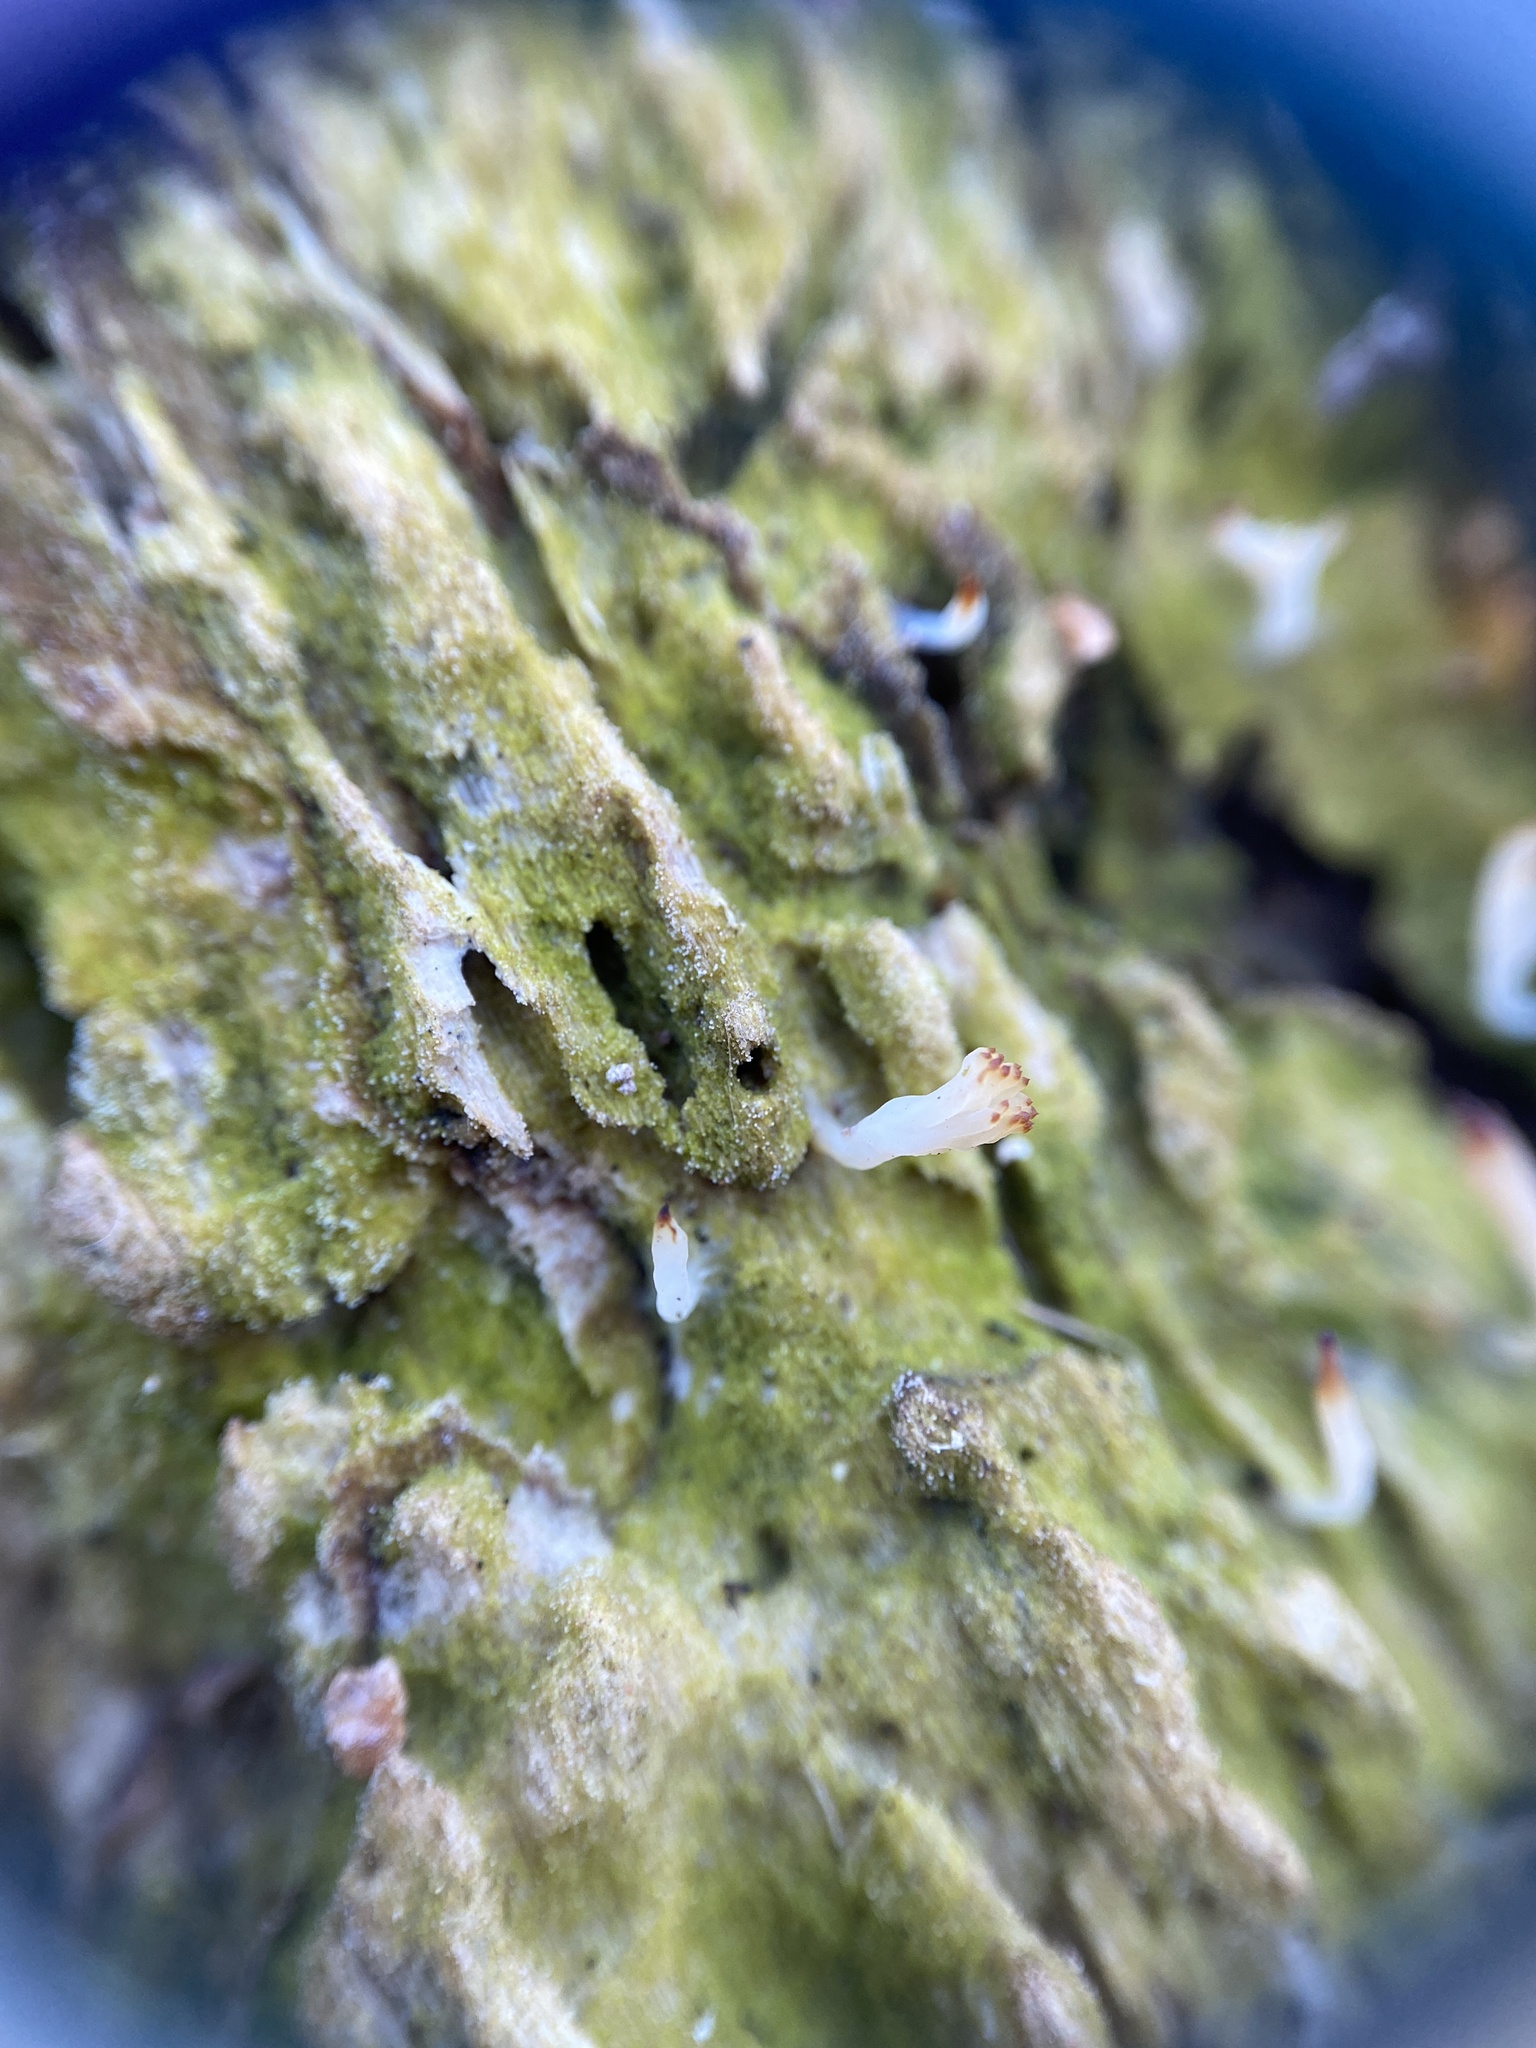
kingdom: Fungi
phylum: Basidiomycota
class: Agaricomycetes
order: Cantharellales
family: Hydnaceae
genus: Multiclavula
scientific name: Multiclavula mucida
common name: White green-algae coral
